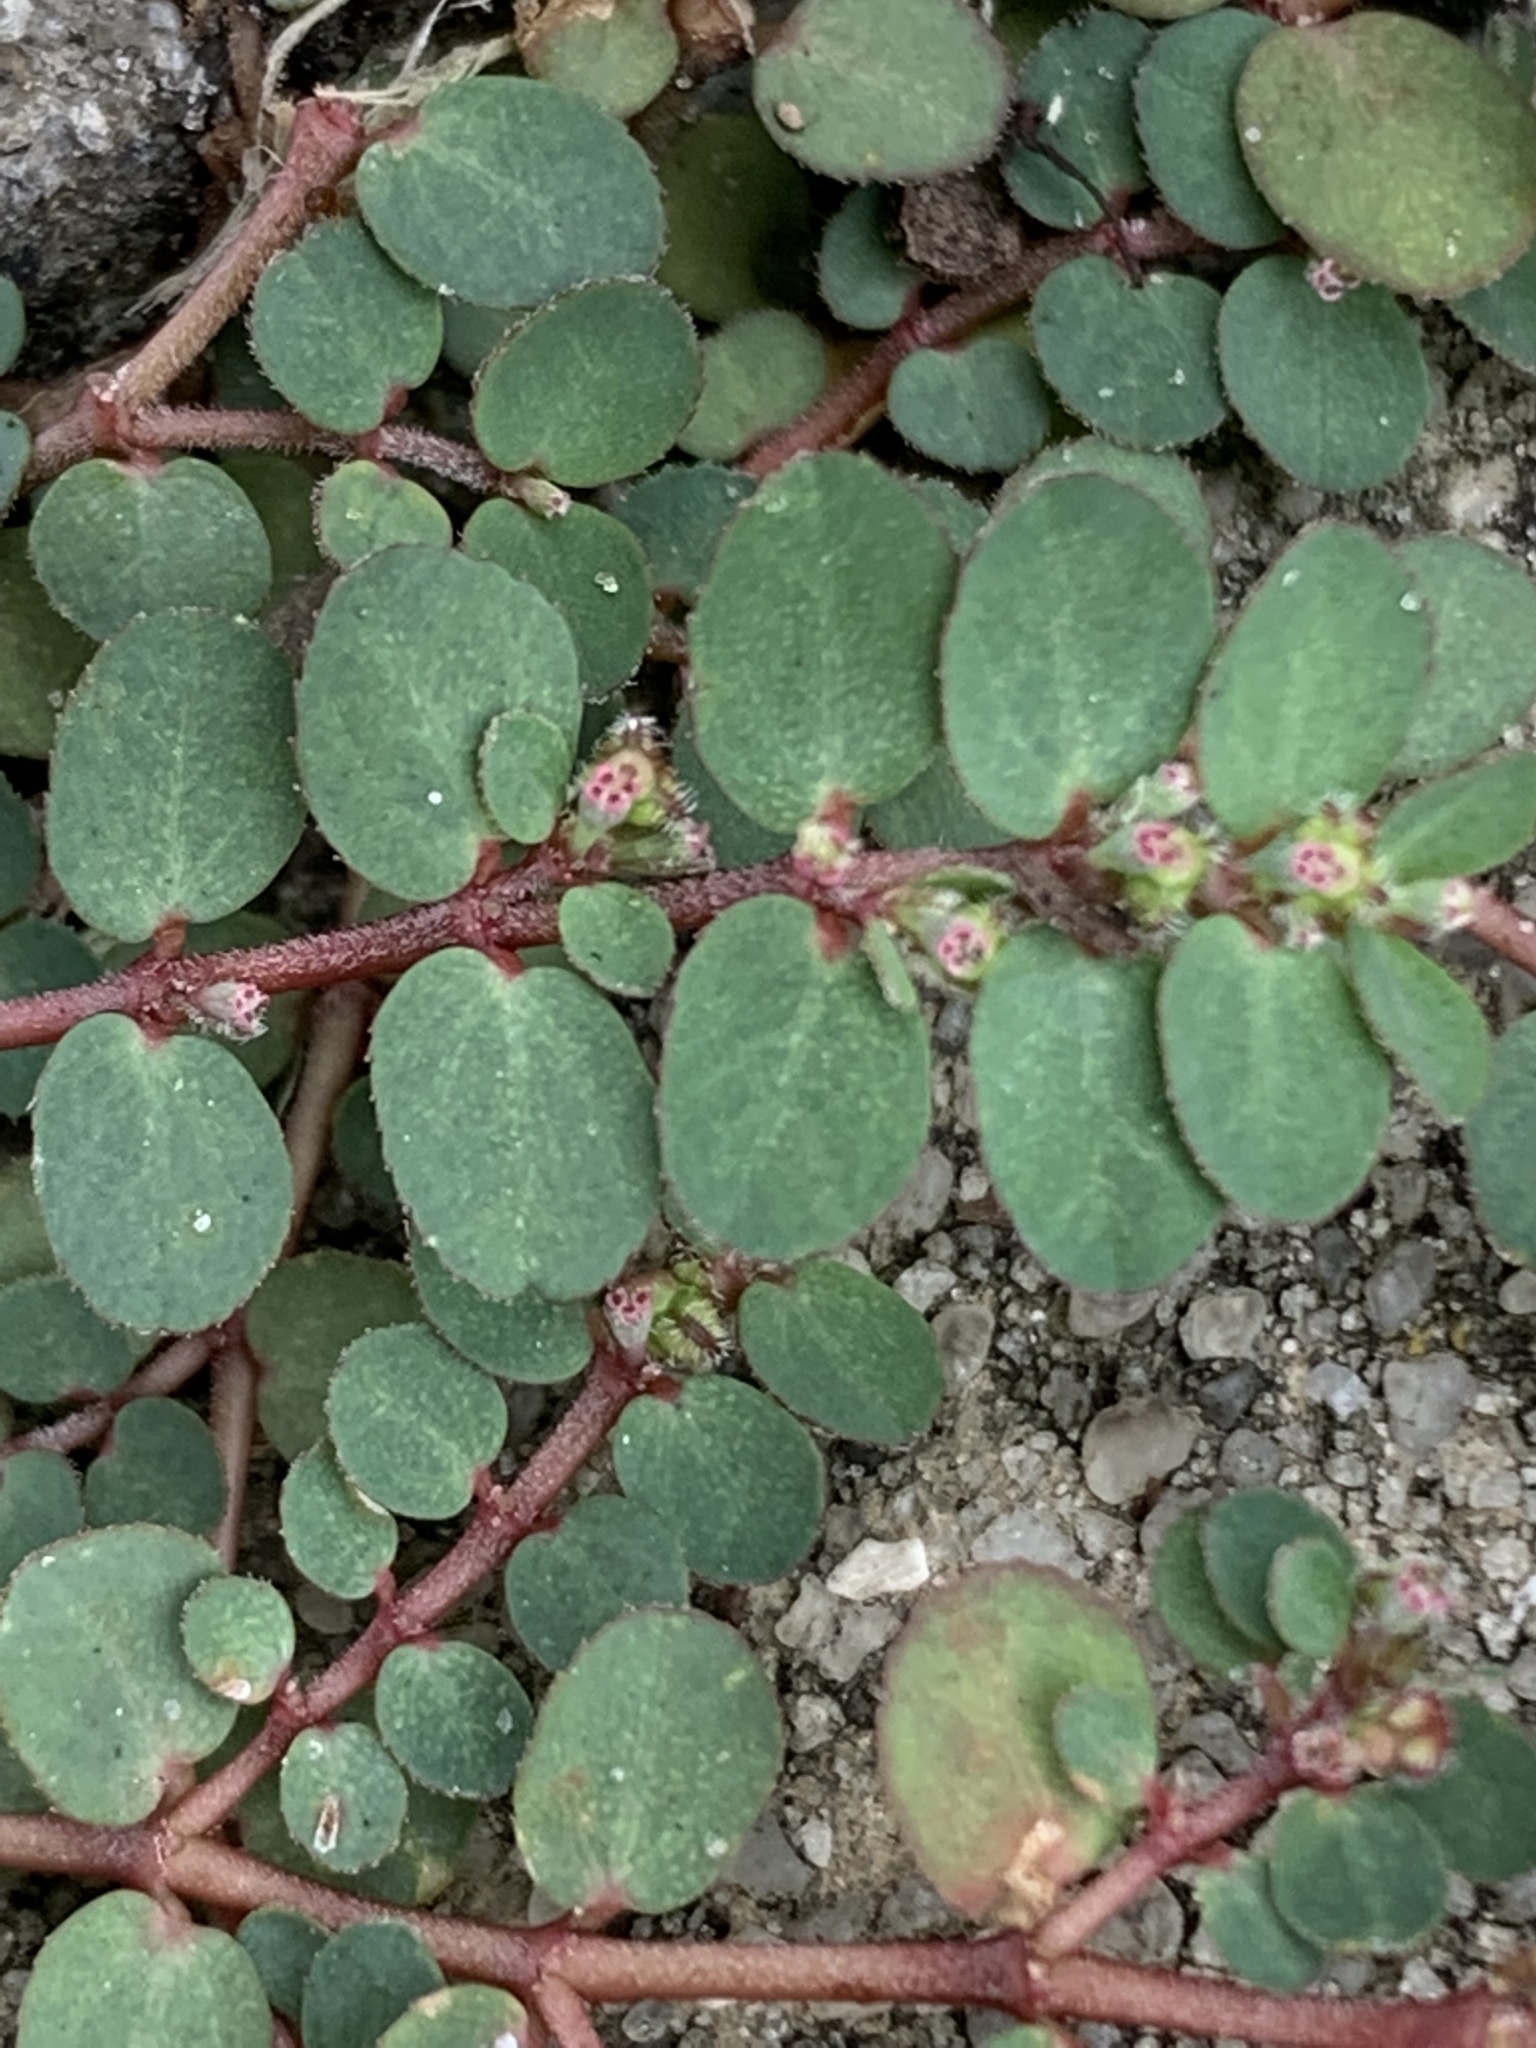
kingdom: Plantae
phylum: Tracheophyta
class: Magnoliopsida
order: Malpighiales
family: Euphorbiaceae
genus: Euphorbia
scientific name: Euphorbia prostrata
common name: Prostrate sandmat
